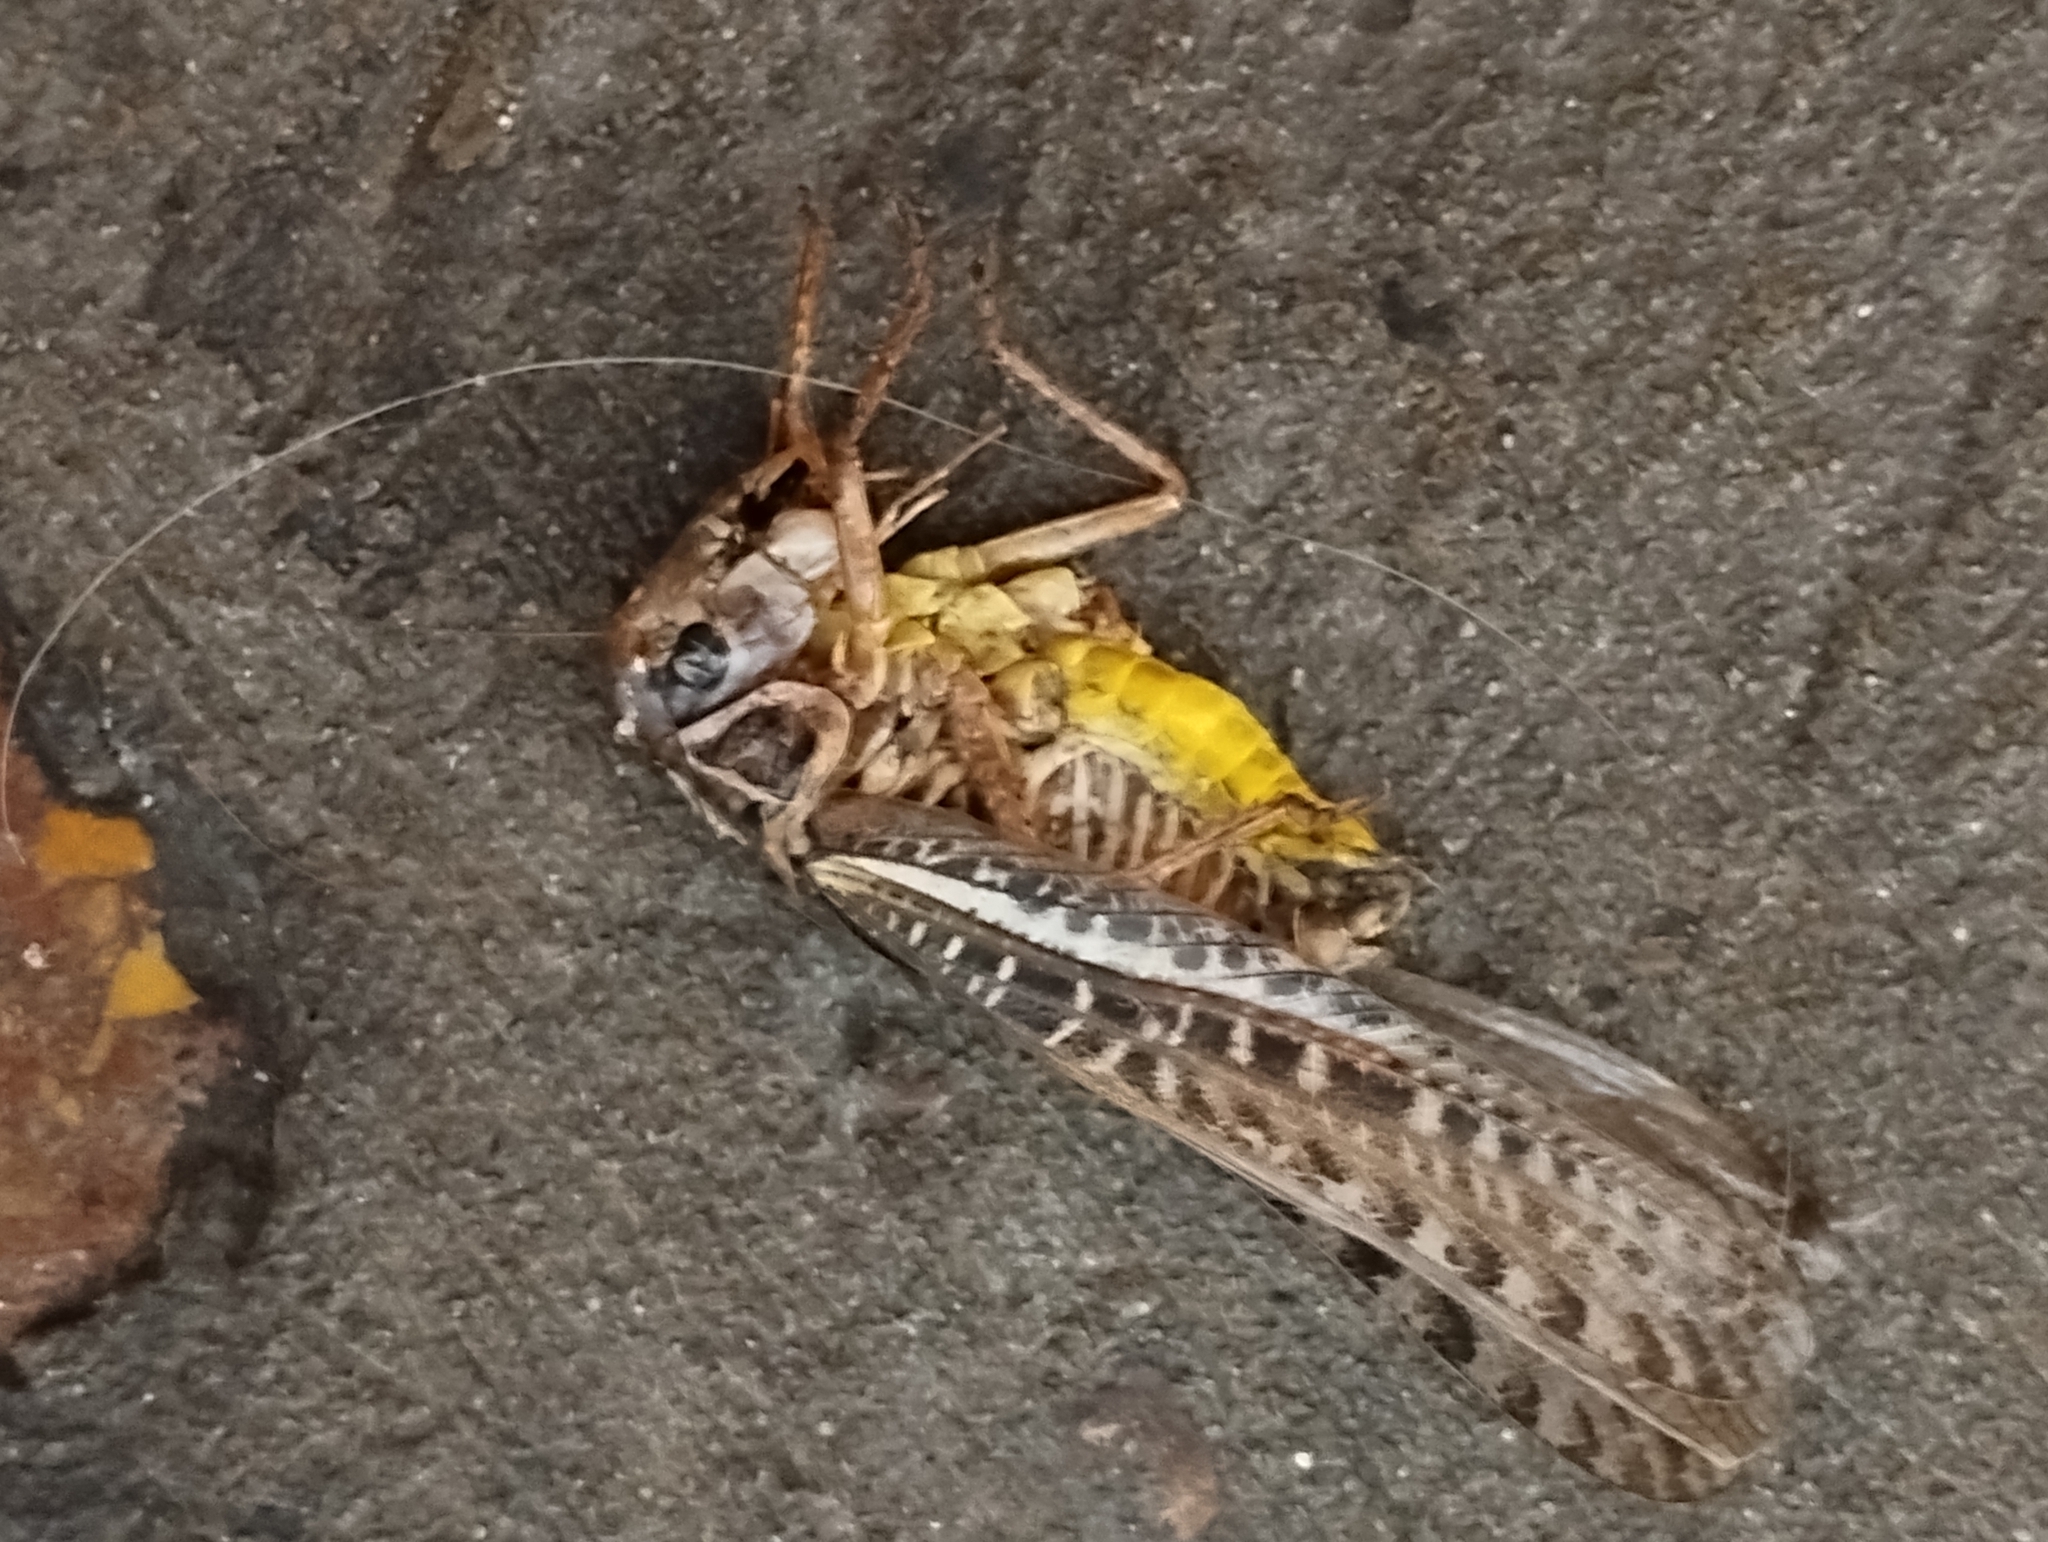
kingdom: Animalia
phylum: Arthropoda
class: Insecta
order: Orthoptera
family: Tettigoniidae
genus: Decticus
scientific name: Decticus albifrons
